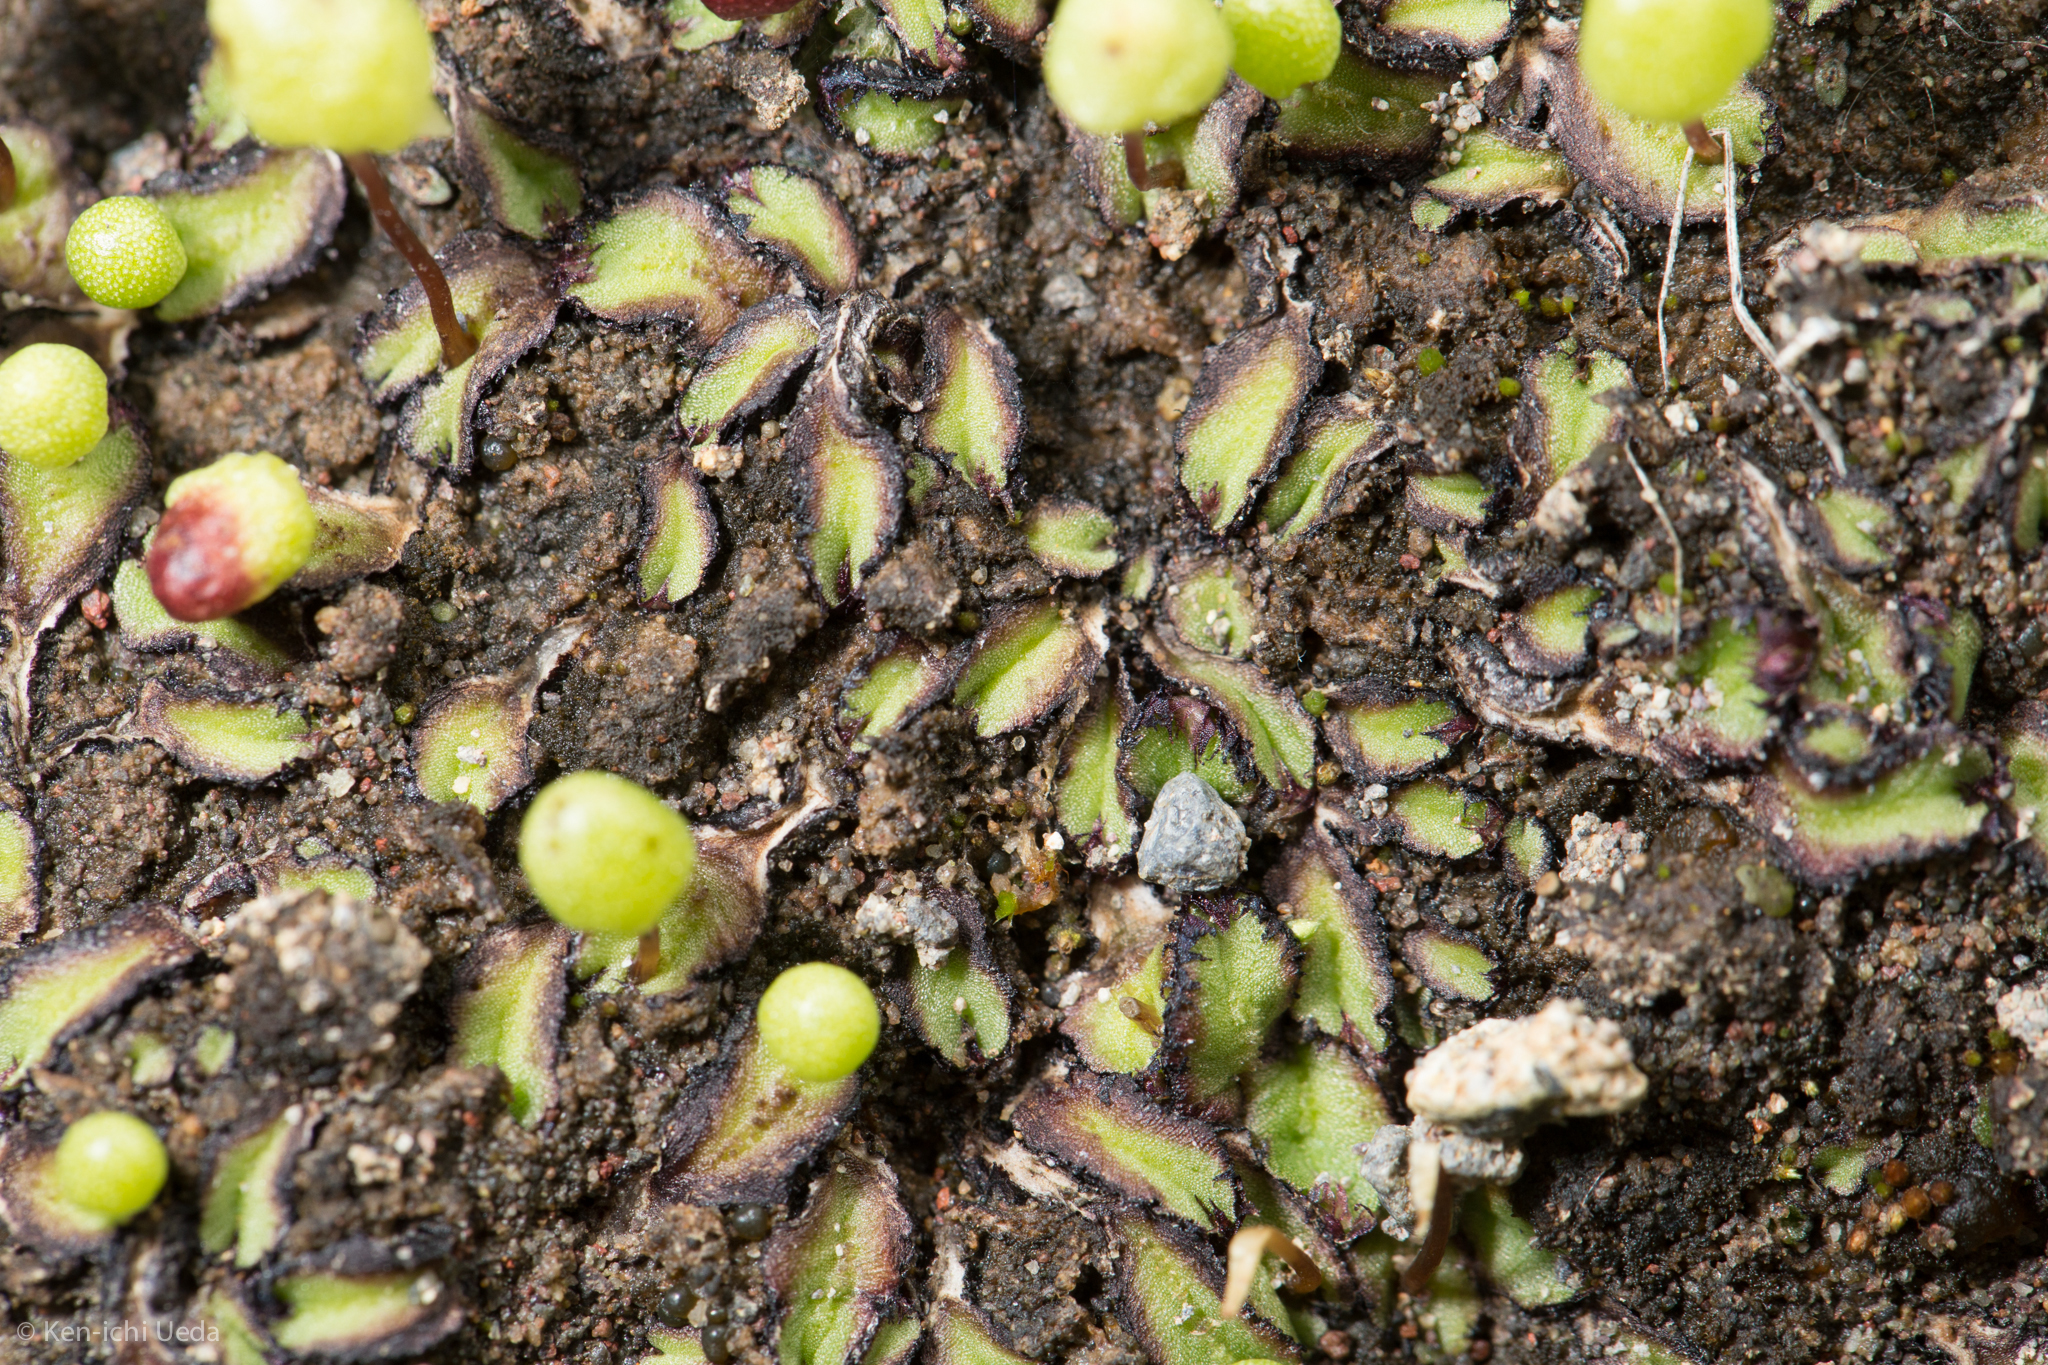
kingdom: Plantae
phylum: Marchantiophyta
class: Marchantiopsida
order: Marchantiales
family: Aytoniaceae
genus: Asterella
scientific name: Asterella palmeri
